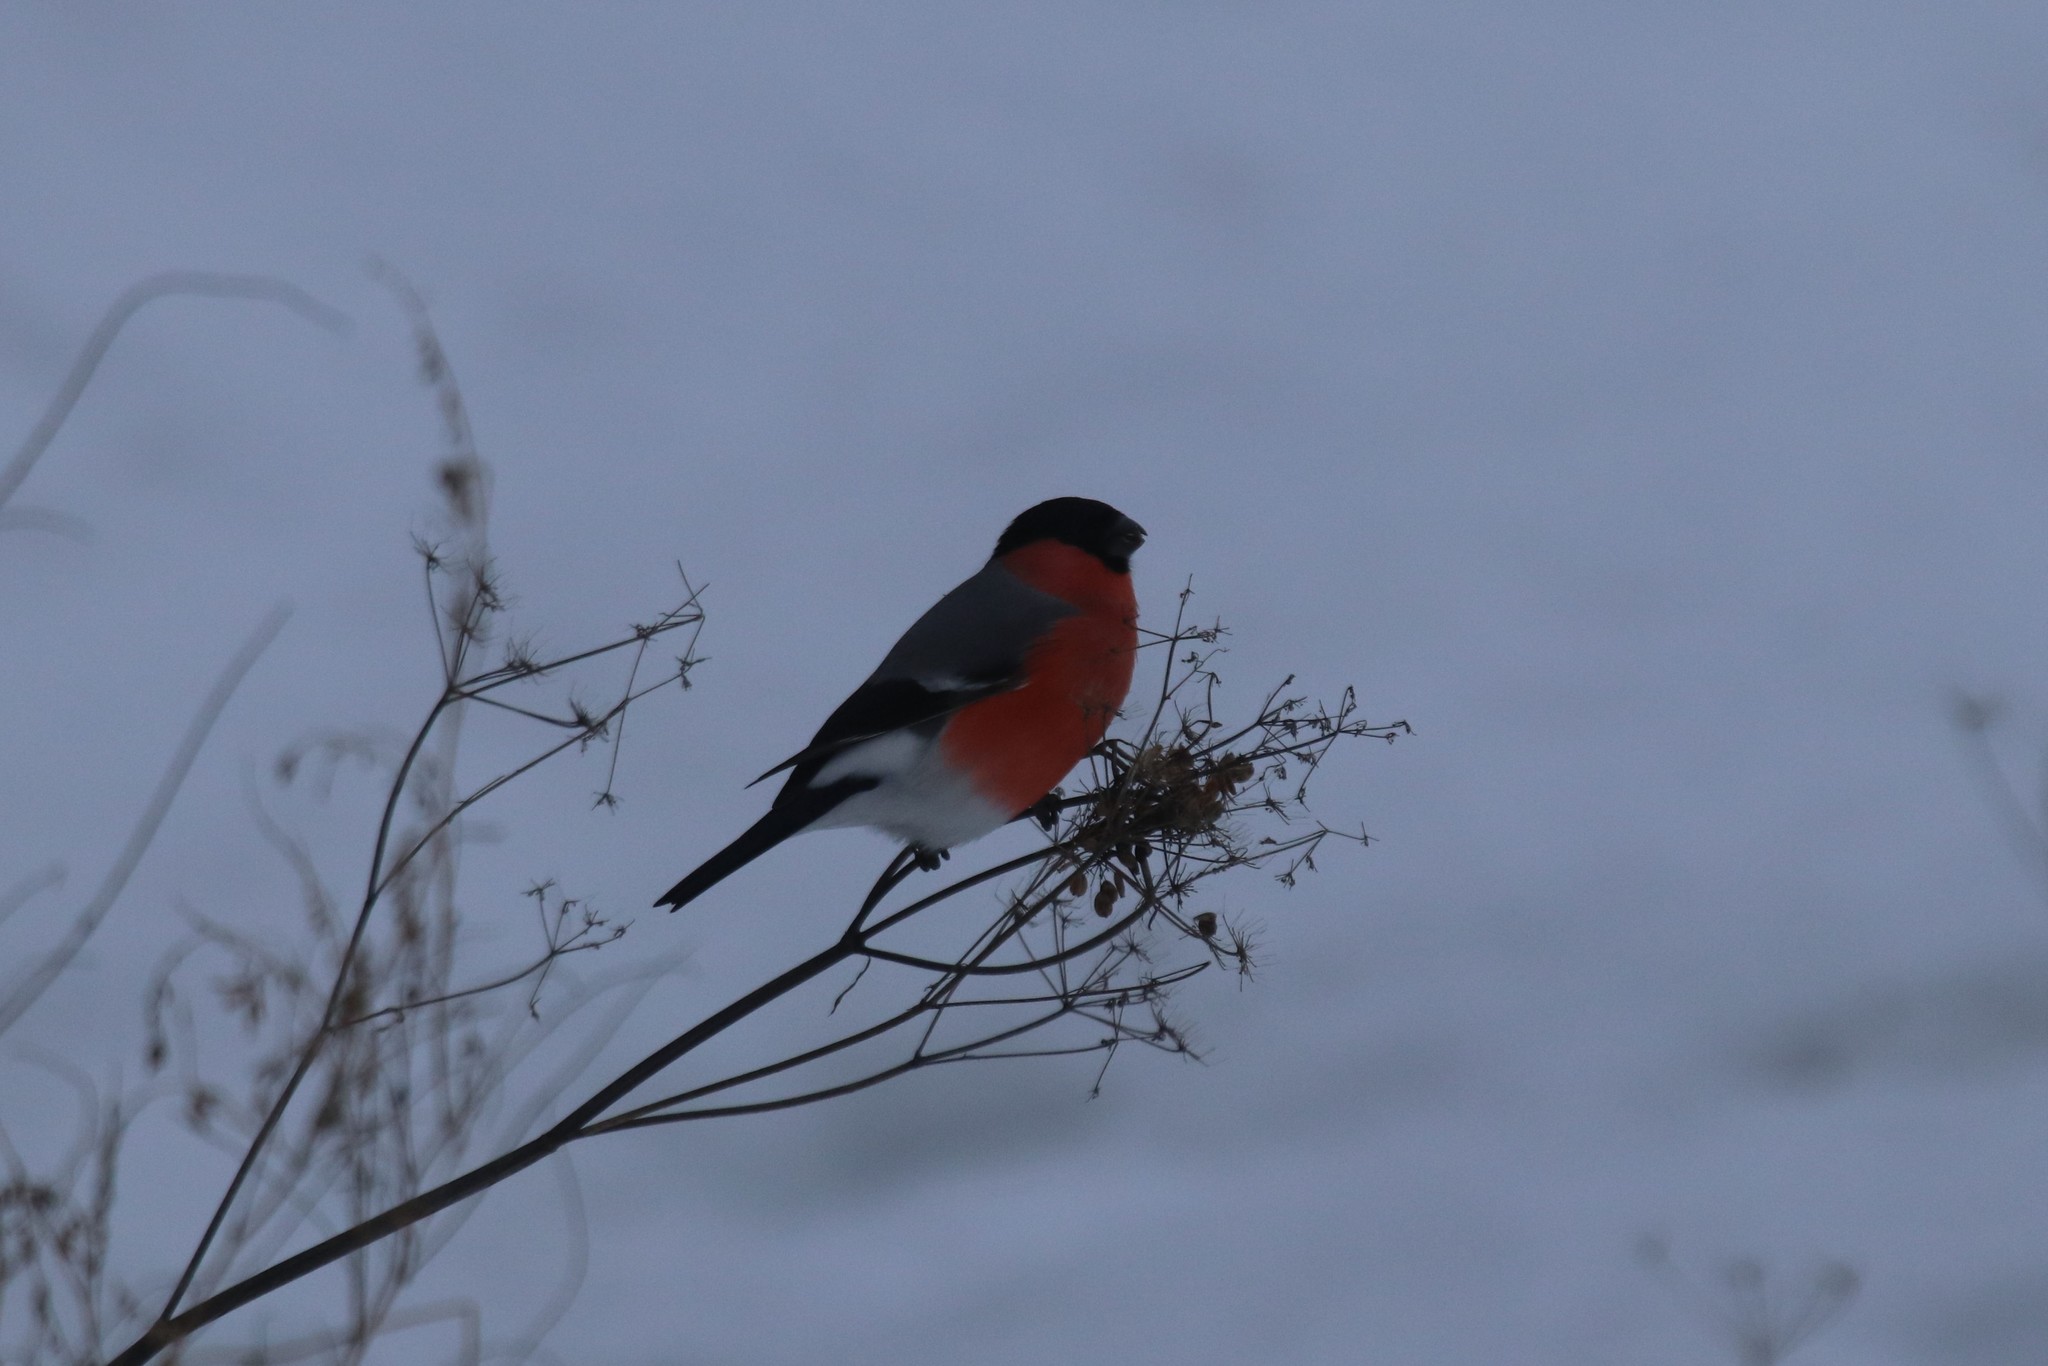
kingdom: Animalia
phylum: Chordata
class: Aves
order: Passeriformes
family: Fringillidae
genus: Pyrrhula
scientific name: Pyrrhula pyrrhula
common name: Eurasian bullfinch
